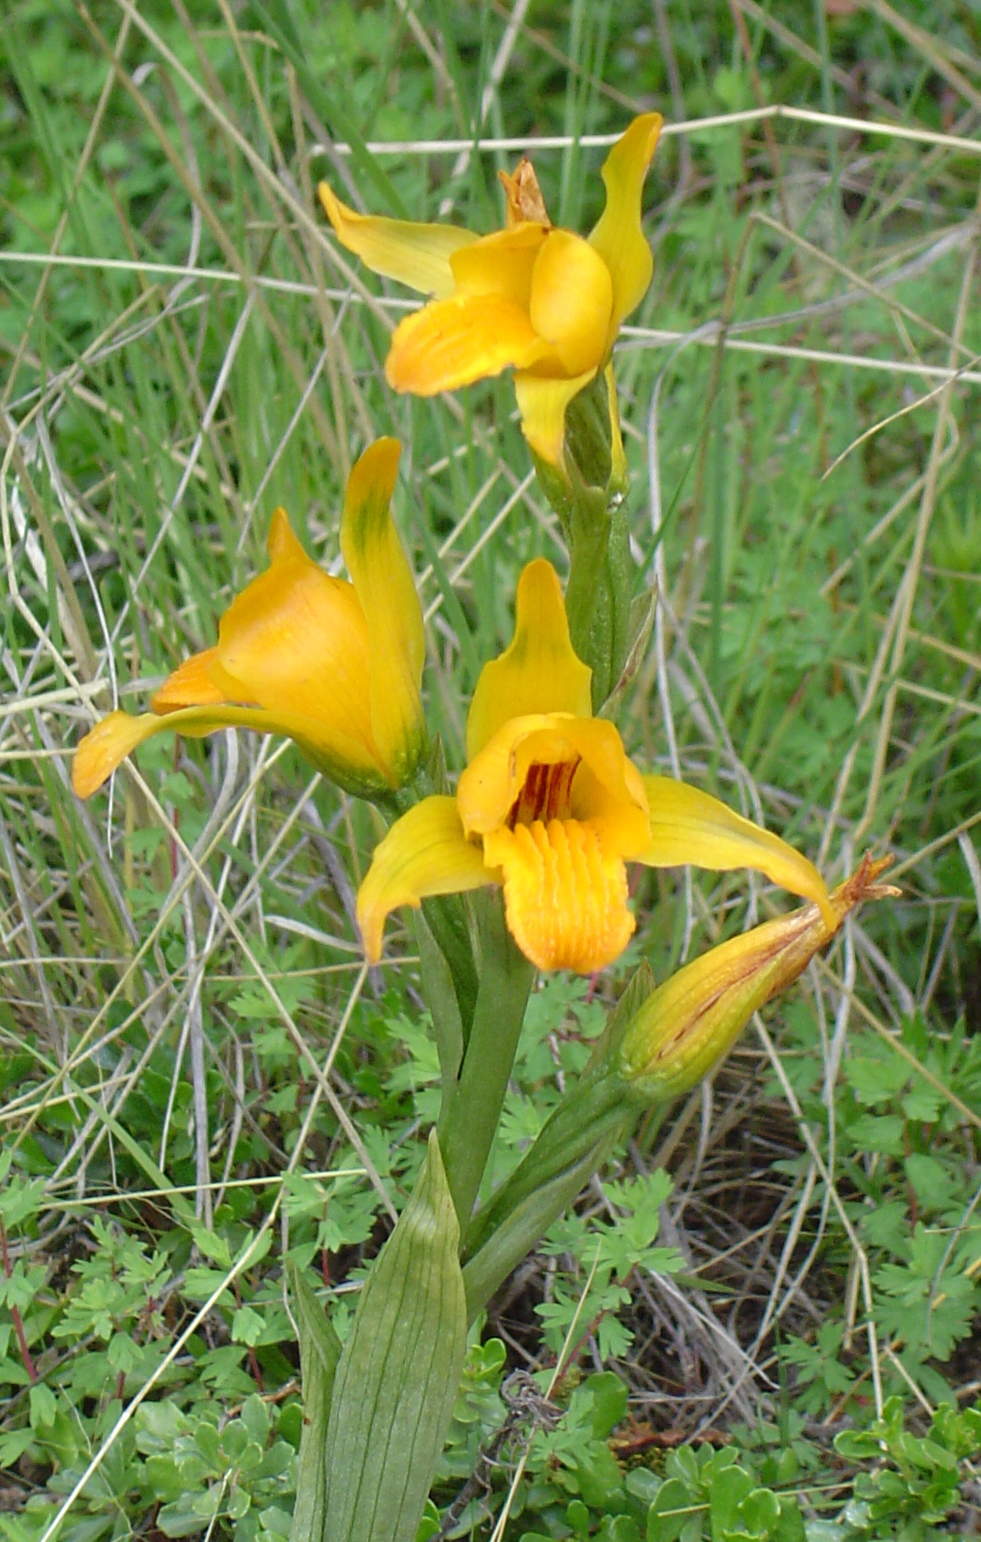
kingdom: Plantae
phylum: Tracheophyta
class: Liliopsida
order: Asparagales
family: Orchidaceae
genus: Chloraea
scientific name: Chloraea alpina
